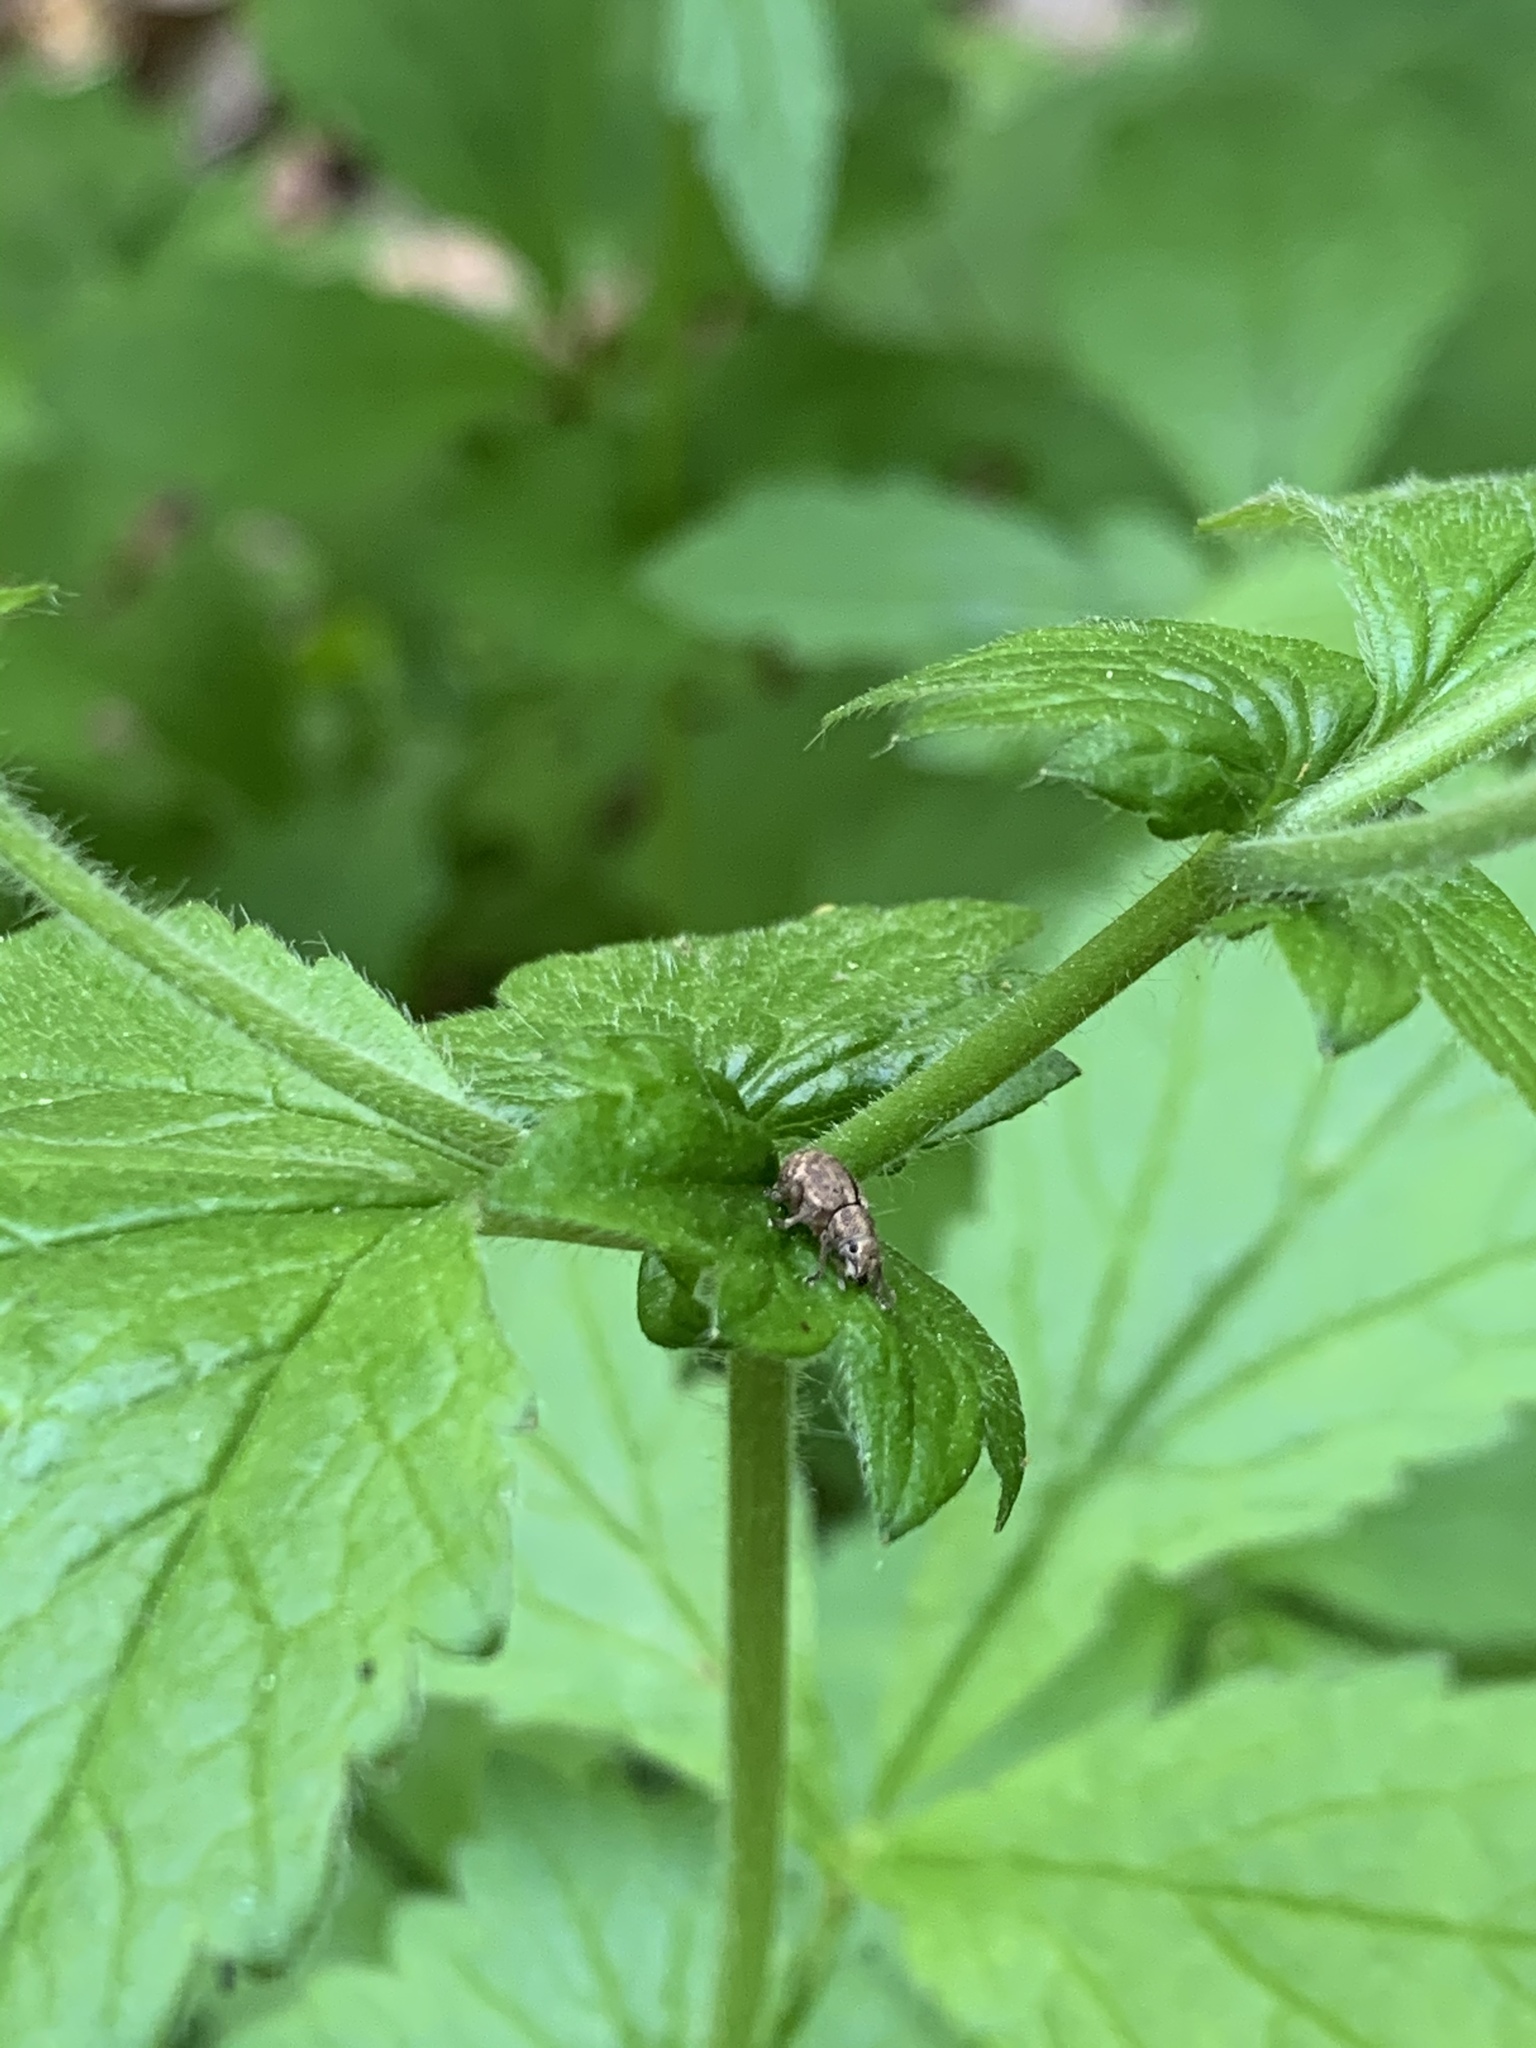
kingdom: Animalia
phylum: Arthropoda
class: Insecta
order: Coleoptera
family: Curculionidae
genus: Strophosoma
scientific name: Strophosoma melanogrammum
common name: Weevil
